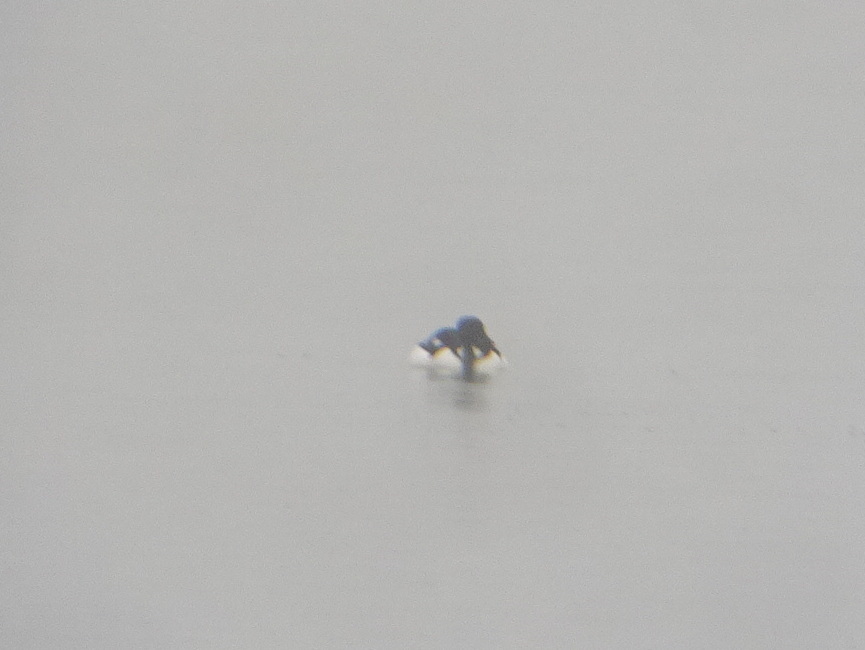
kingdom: Animalia
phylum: Chordata
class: Aves
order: Anseriformes
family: Anatidae
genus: Bucephala
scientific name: Bucephala islandica
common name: Barrow's goldeneye
